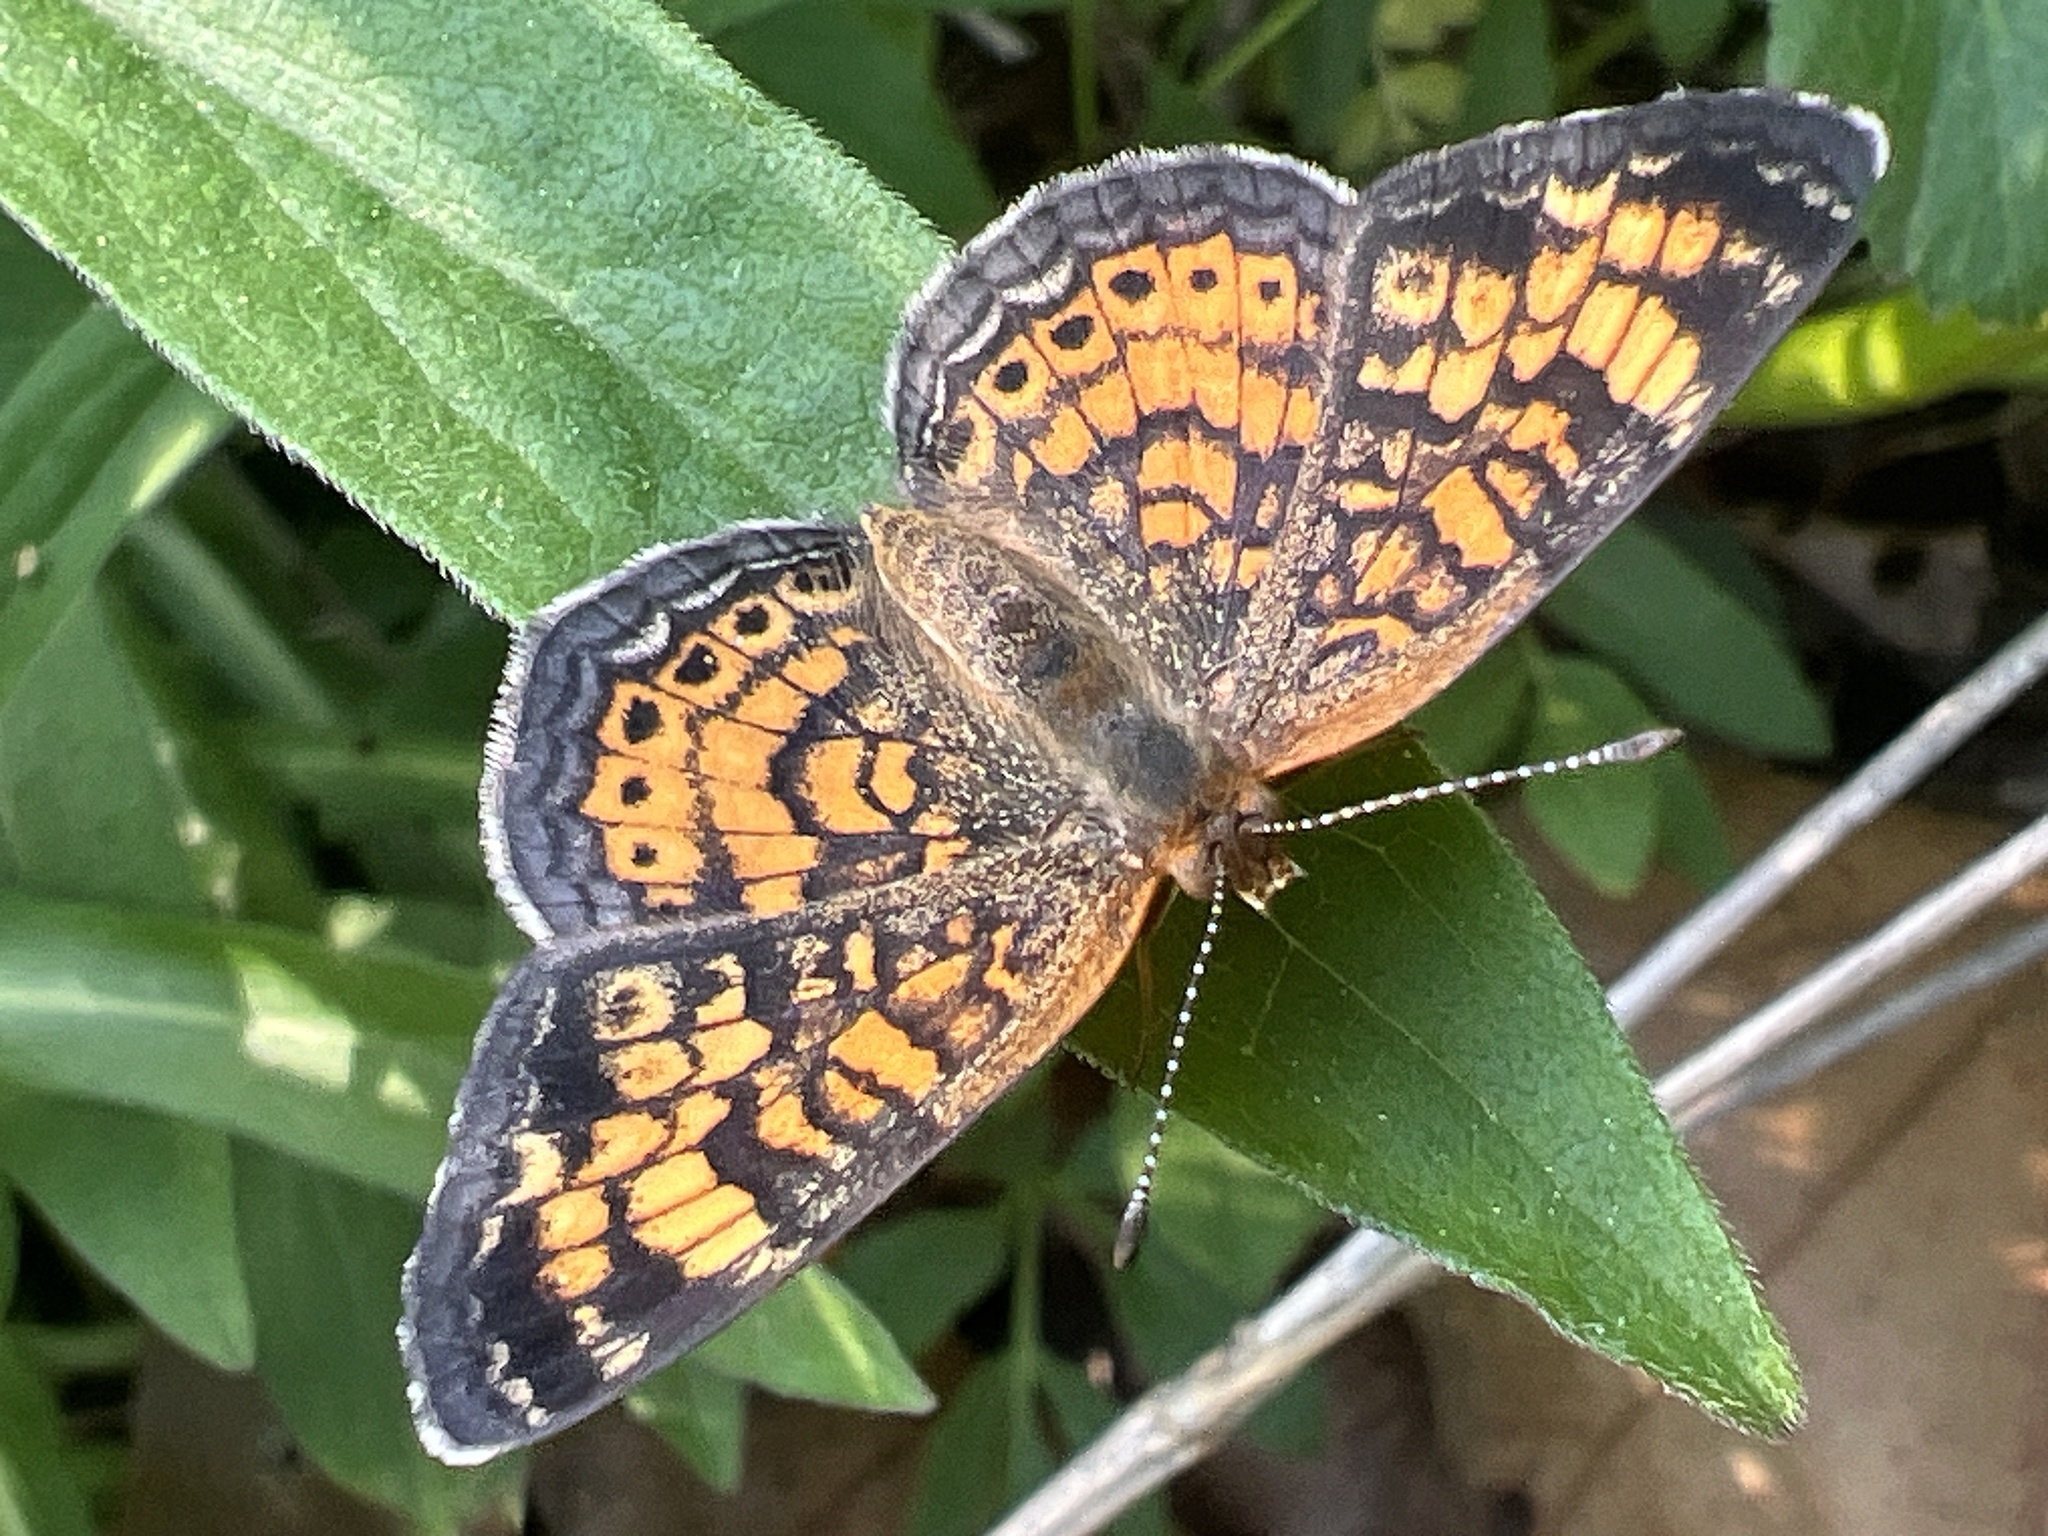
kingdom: Animalia
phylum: Arthropoda
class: Insecta
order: Lepidoptera
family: Nymphalidae
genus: Phyciodes
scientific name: Phyciodes tharos
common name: Pearl crescent
